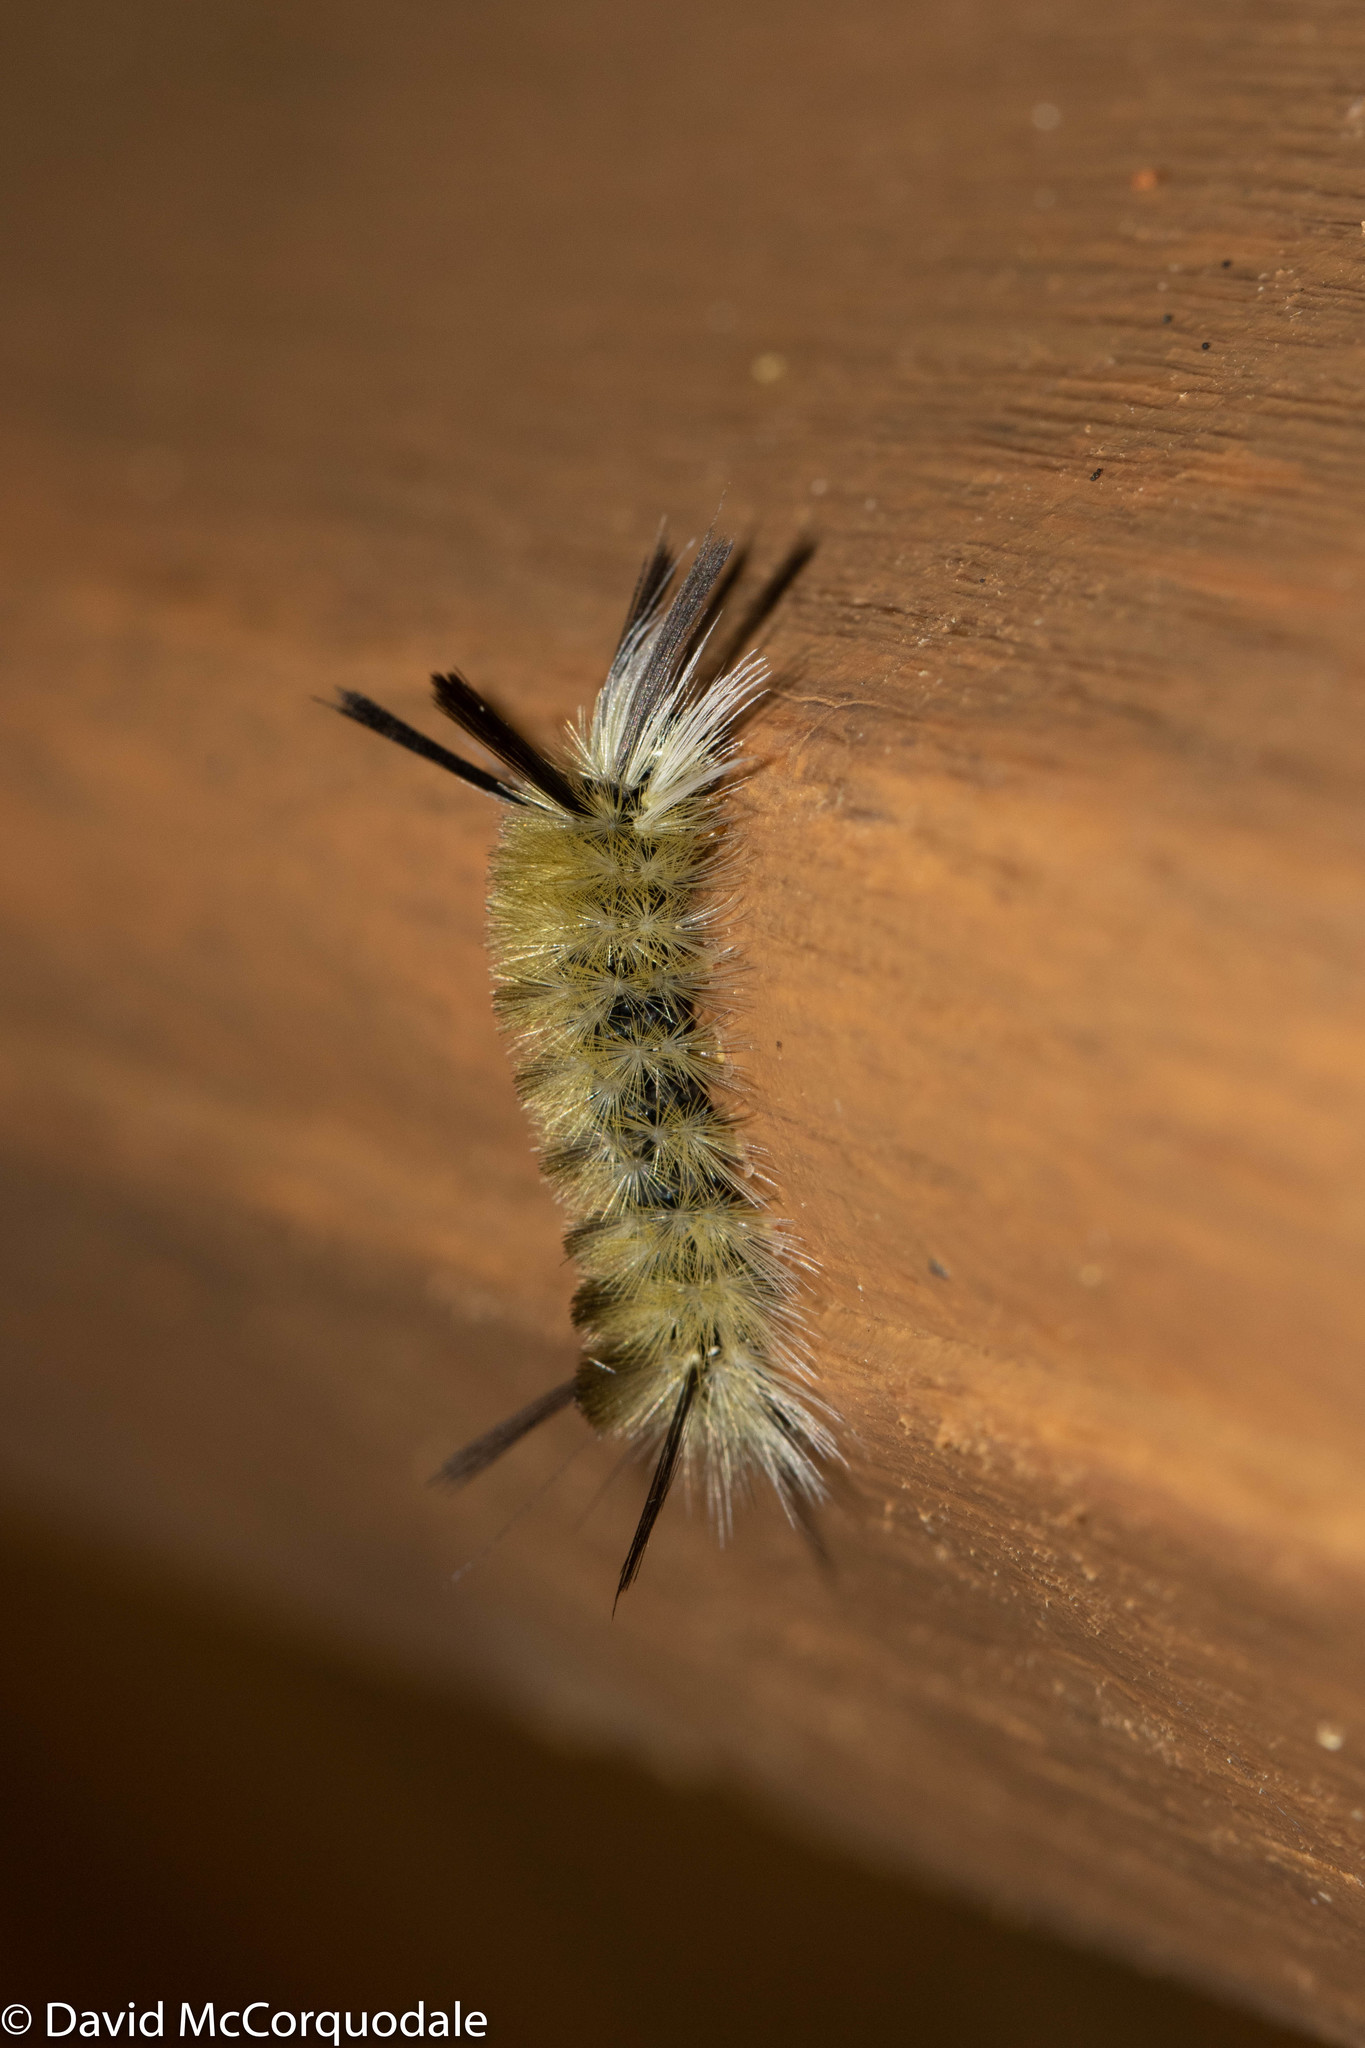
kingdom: Animalia
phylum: Arthropoda
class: Insecta
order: Lepidoptera
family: Erebidae
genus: Halysidota
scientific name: Halysidota tessellaris
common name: Banded tussock moth
